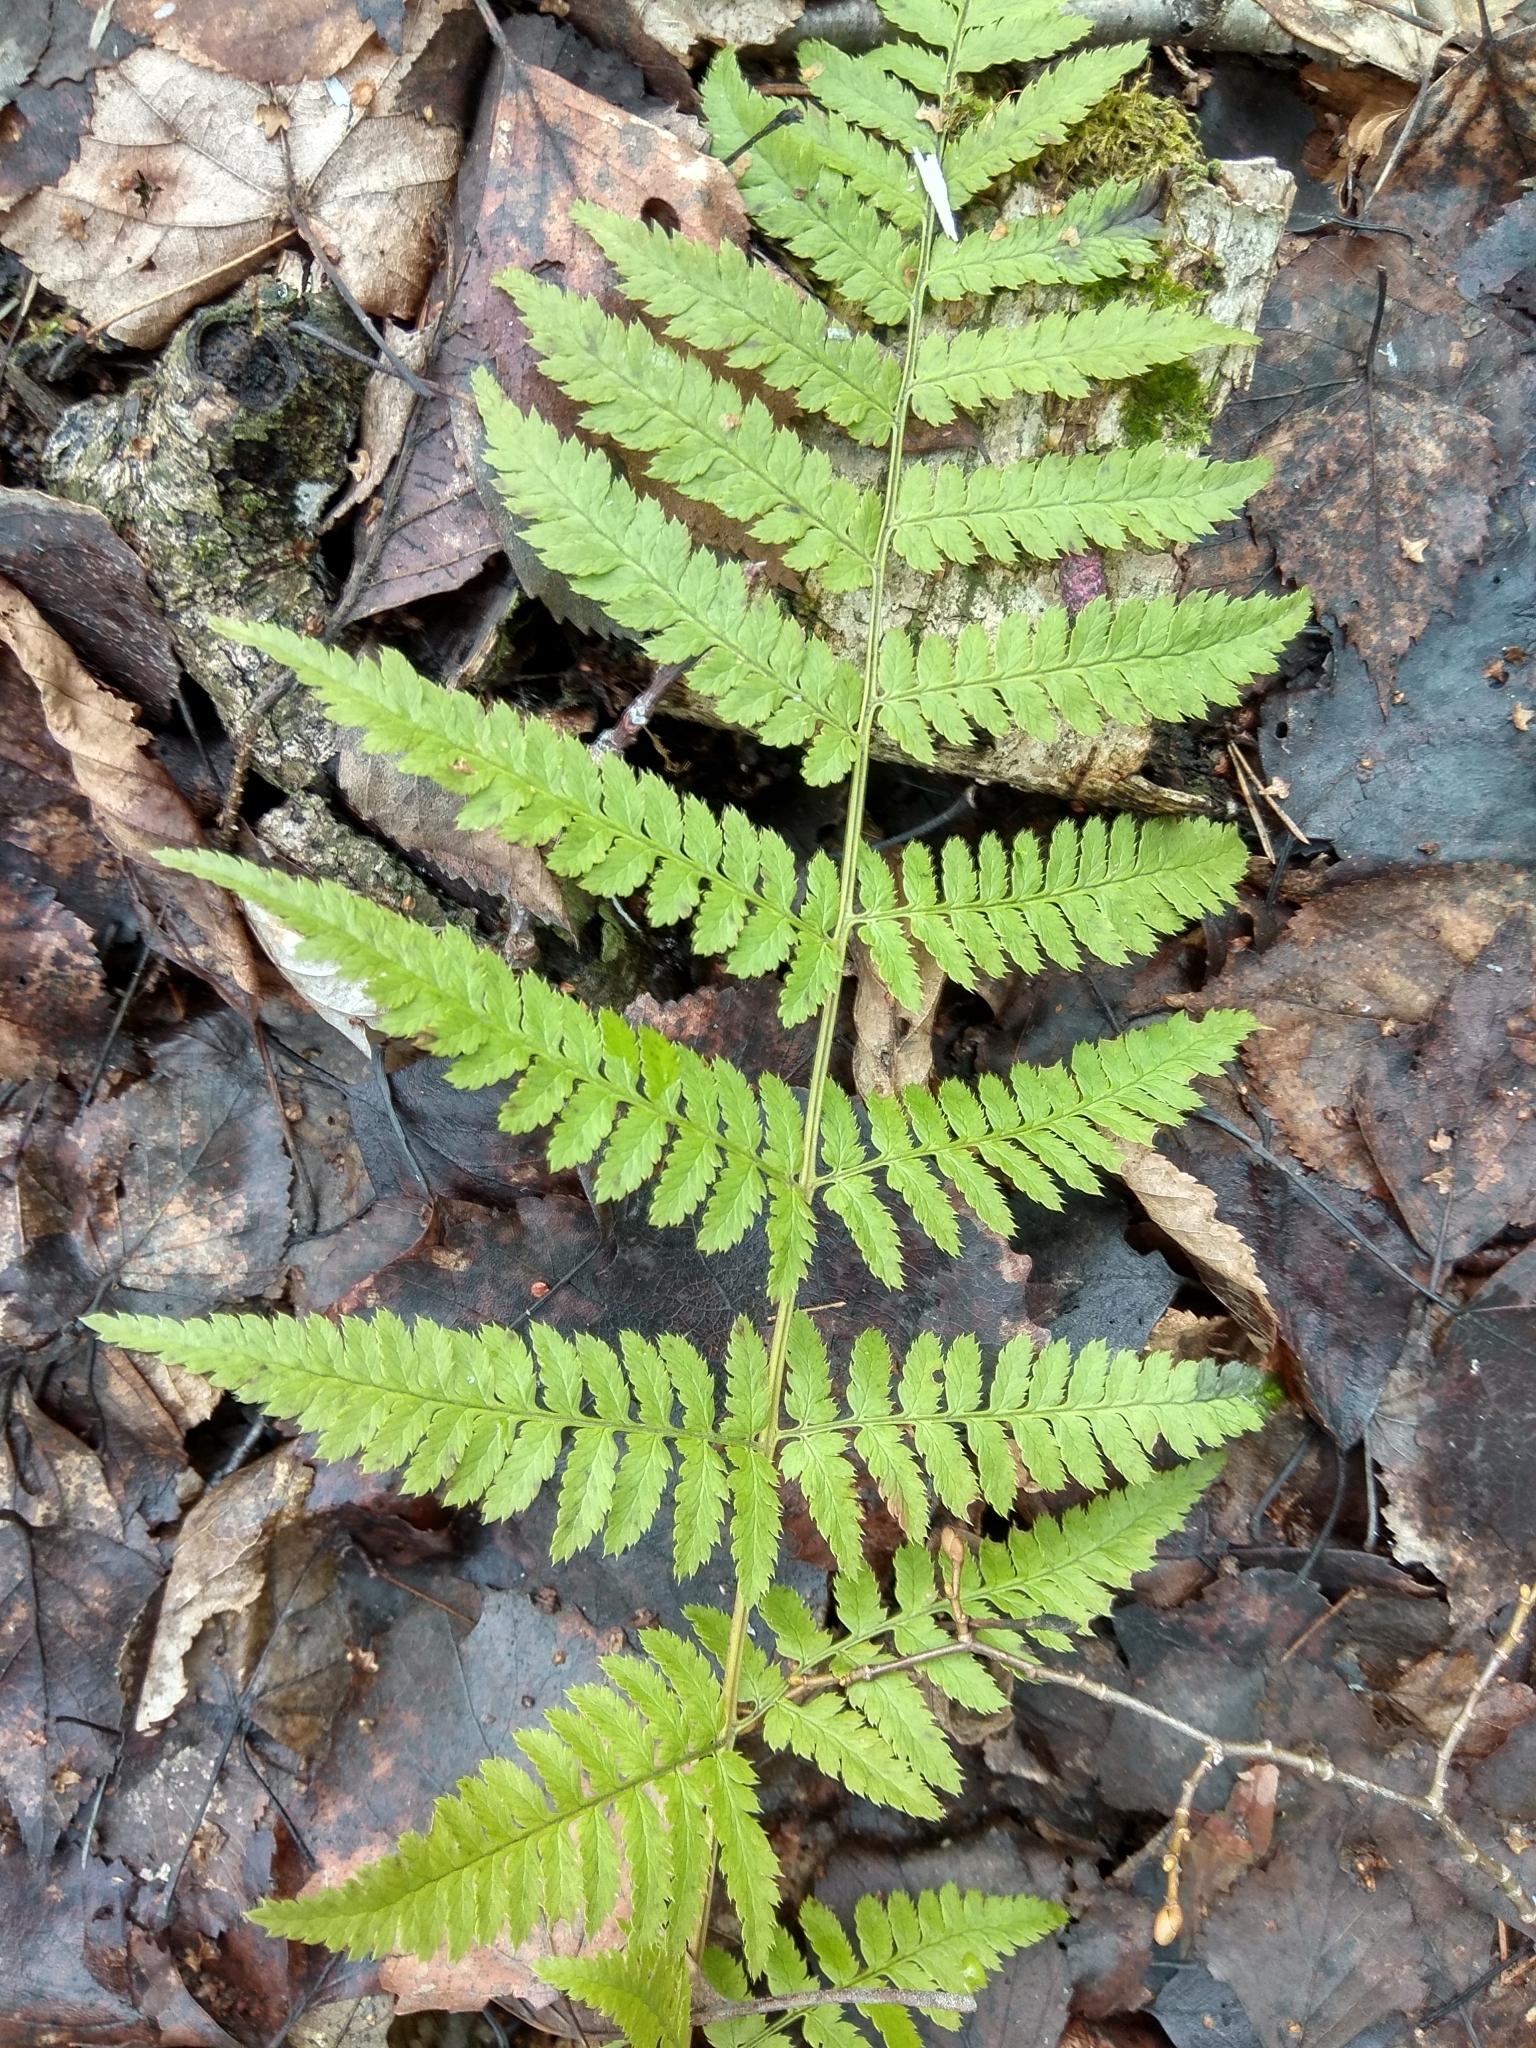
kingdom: Plantae
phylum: Tracheophyta
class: Polypodiopsida
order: Polypodiales
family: Dryopteridaceae
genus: Dryopteris
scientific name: Dryopteris carthusiana
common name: Narrow buckler-fern
